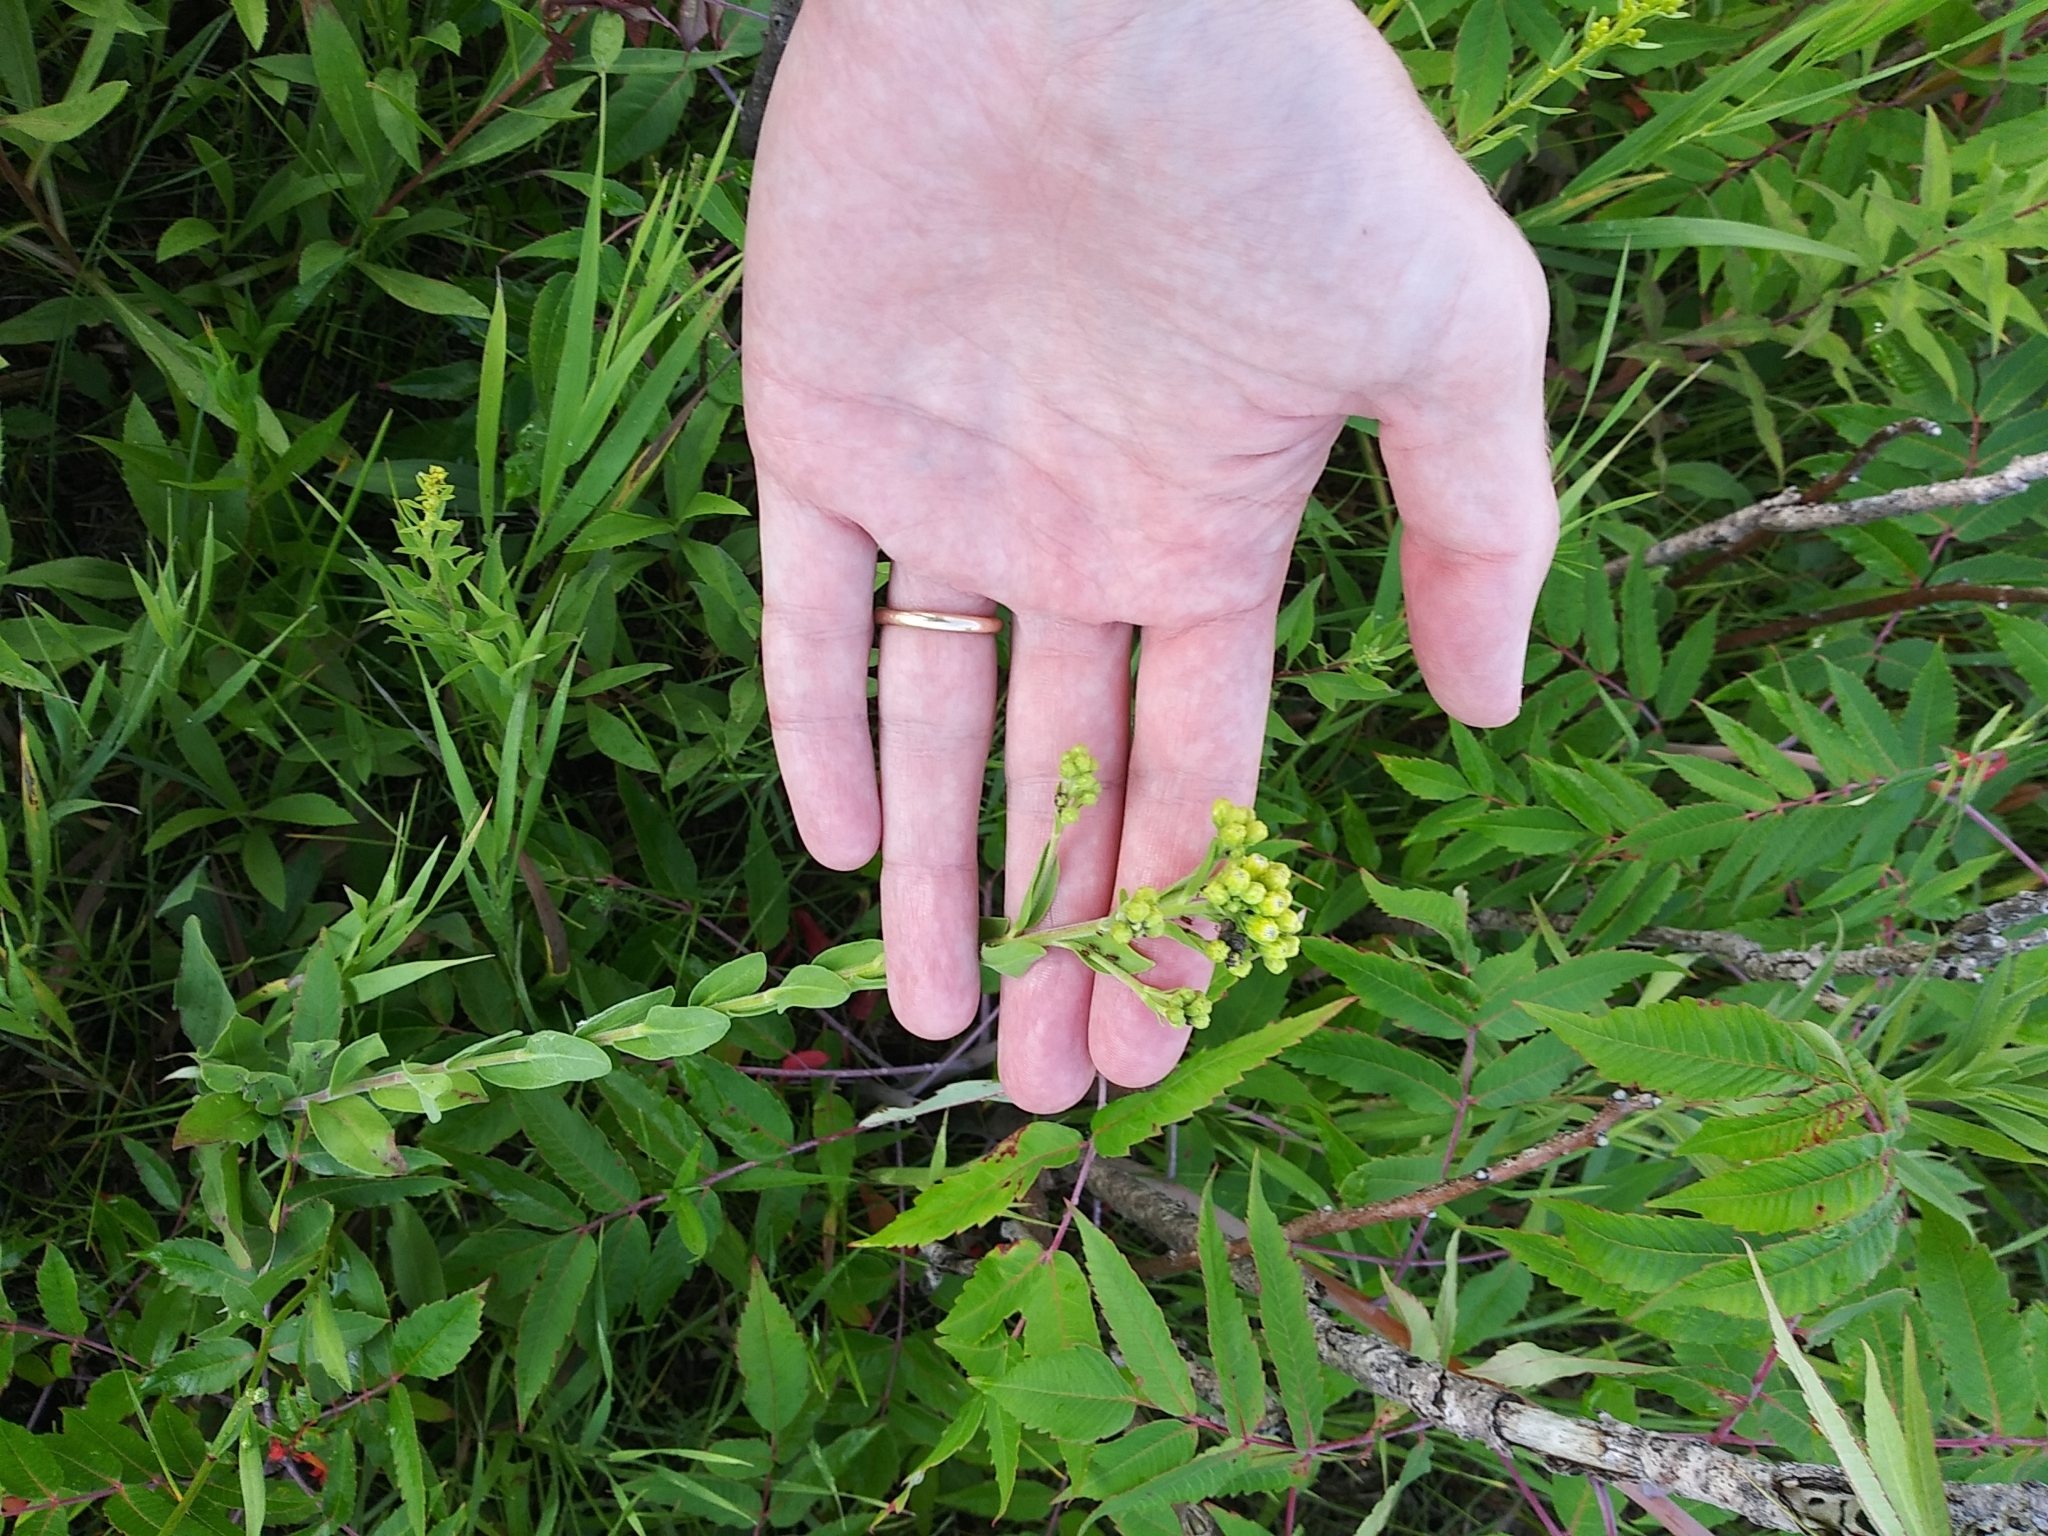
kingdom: Plantae
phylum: Tracheophyta
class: Magnoliopsida
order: Asterales
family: Asteraceae
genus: Solidago
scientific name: Solidago rigida
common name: Rigid goldenrod
